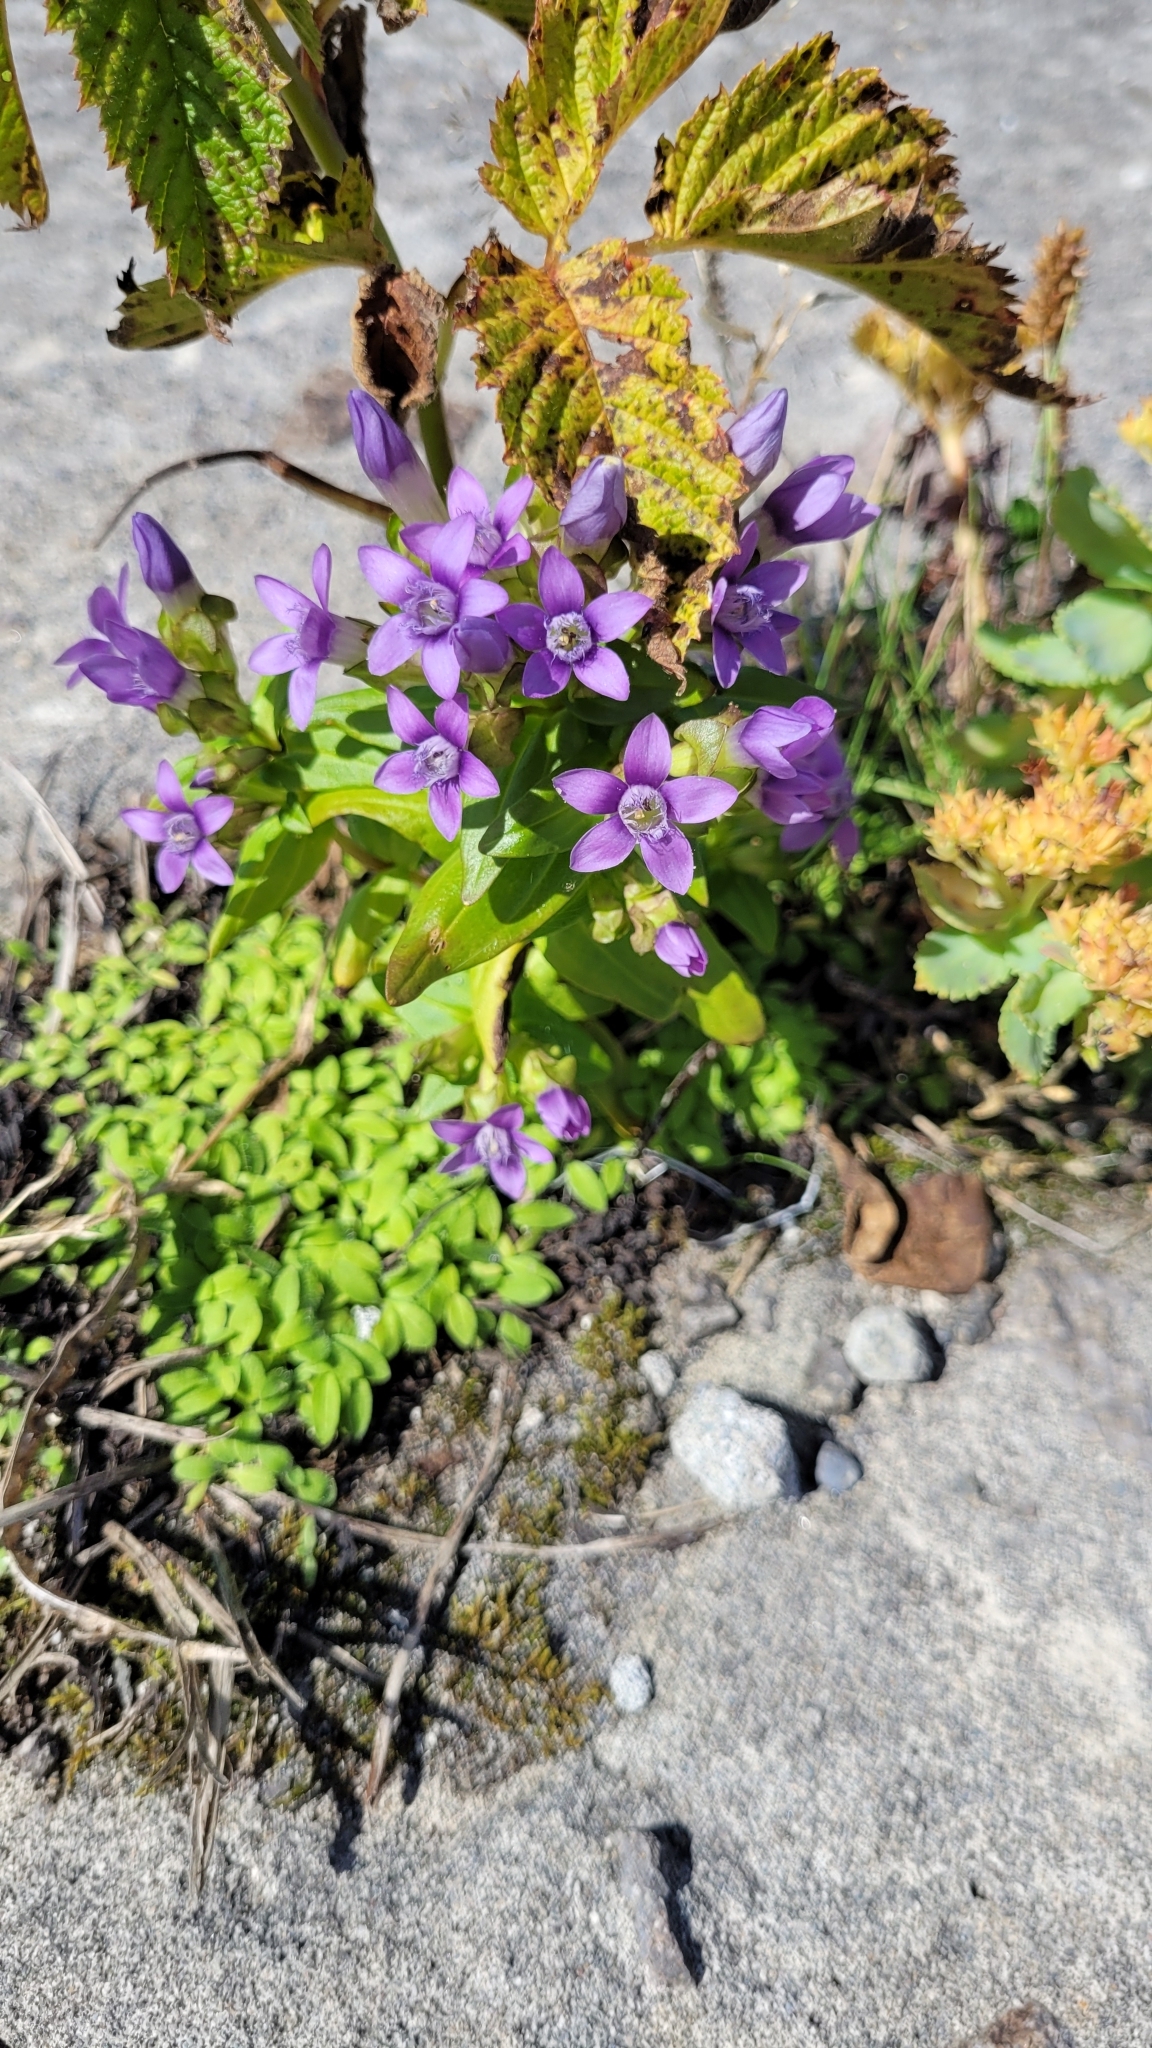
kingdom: Plantae
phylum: Tracheophyta
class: Magnoliopsida
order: Gentianales
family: Gentianaceae
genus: Gentianella
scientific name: Gentianella auriculata
